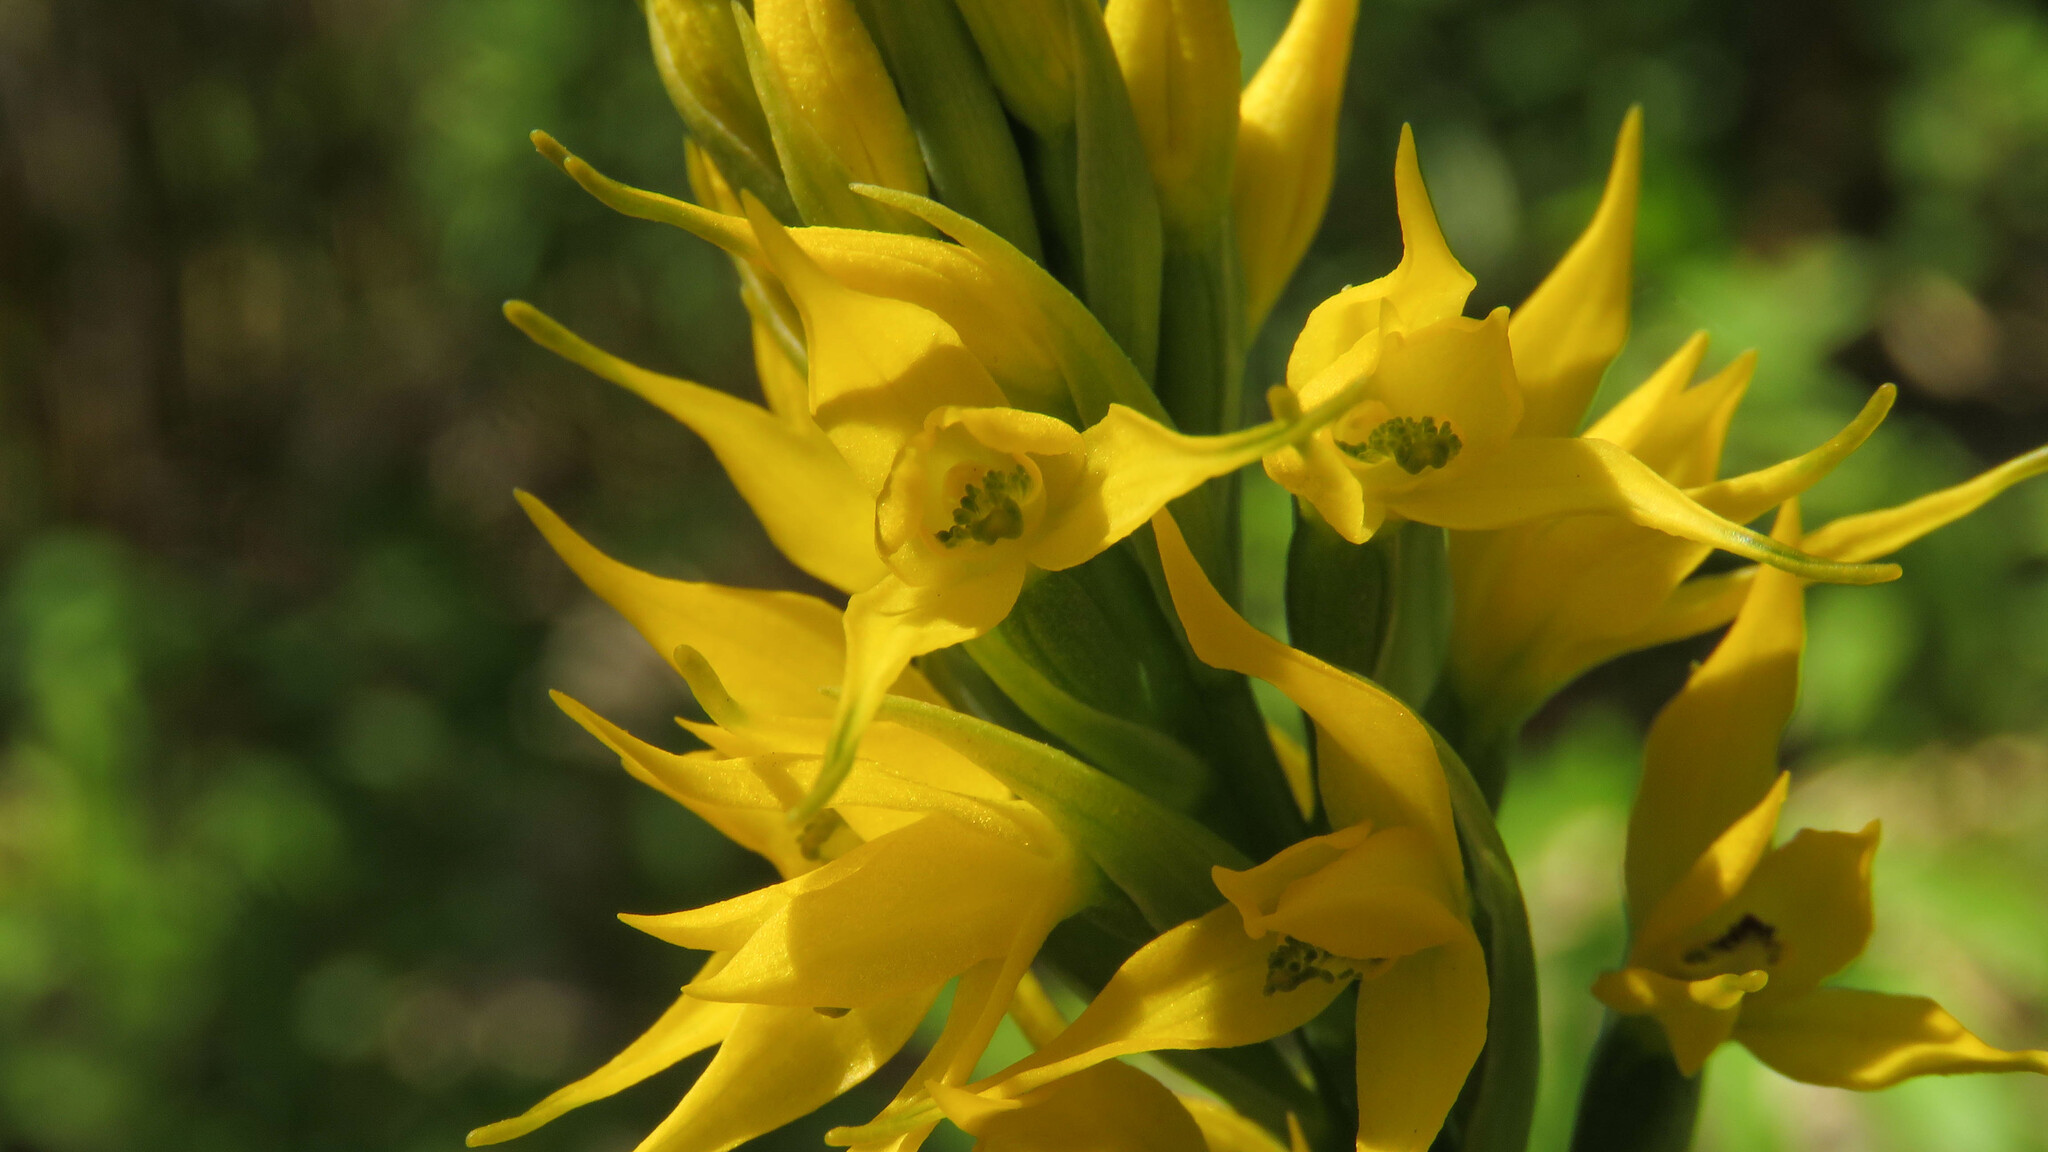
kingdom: Plantae
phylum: Tracheophyta
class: Liliopsida
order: Asparagales
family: Orchidaceae
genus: Gavilea
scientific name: Gavilea lutea
